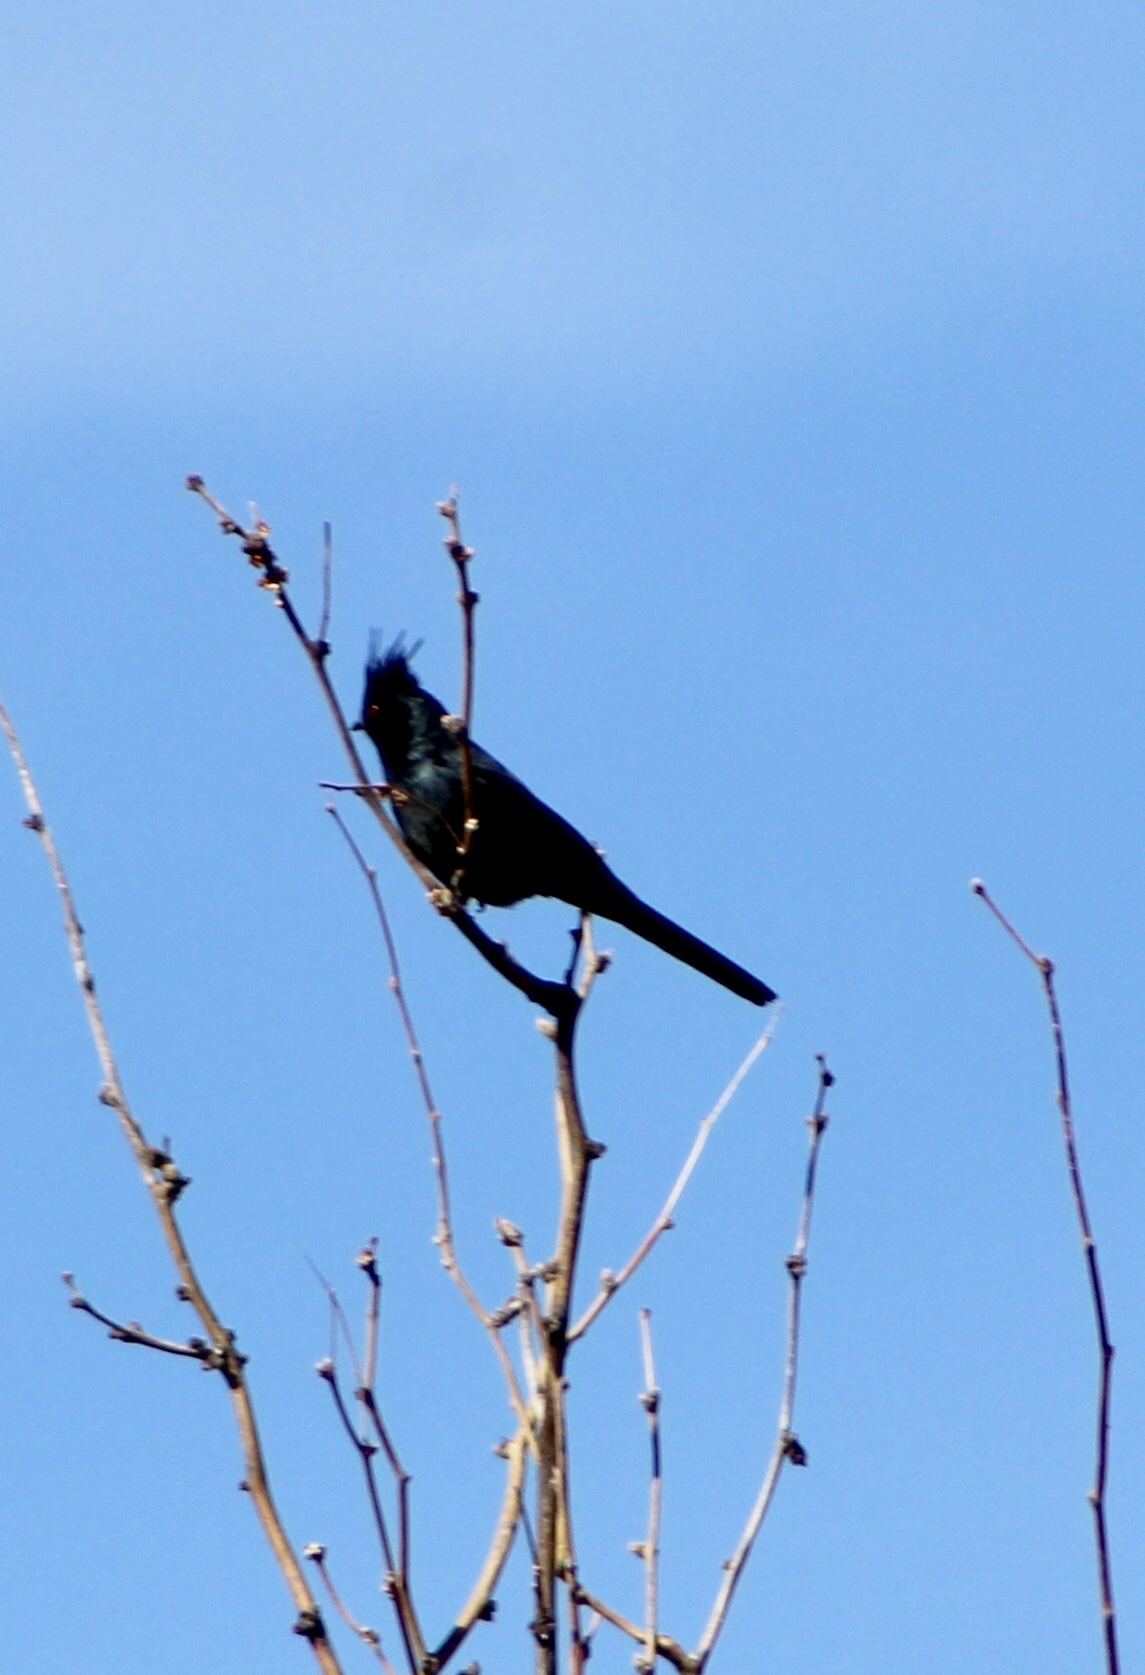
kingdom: Animalia
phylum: Chordata
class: Aves
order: Passeriformes
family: Ptilogonatidae
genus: Phainopepla
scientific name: Phainopepla nitens
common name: Phainopepla
